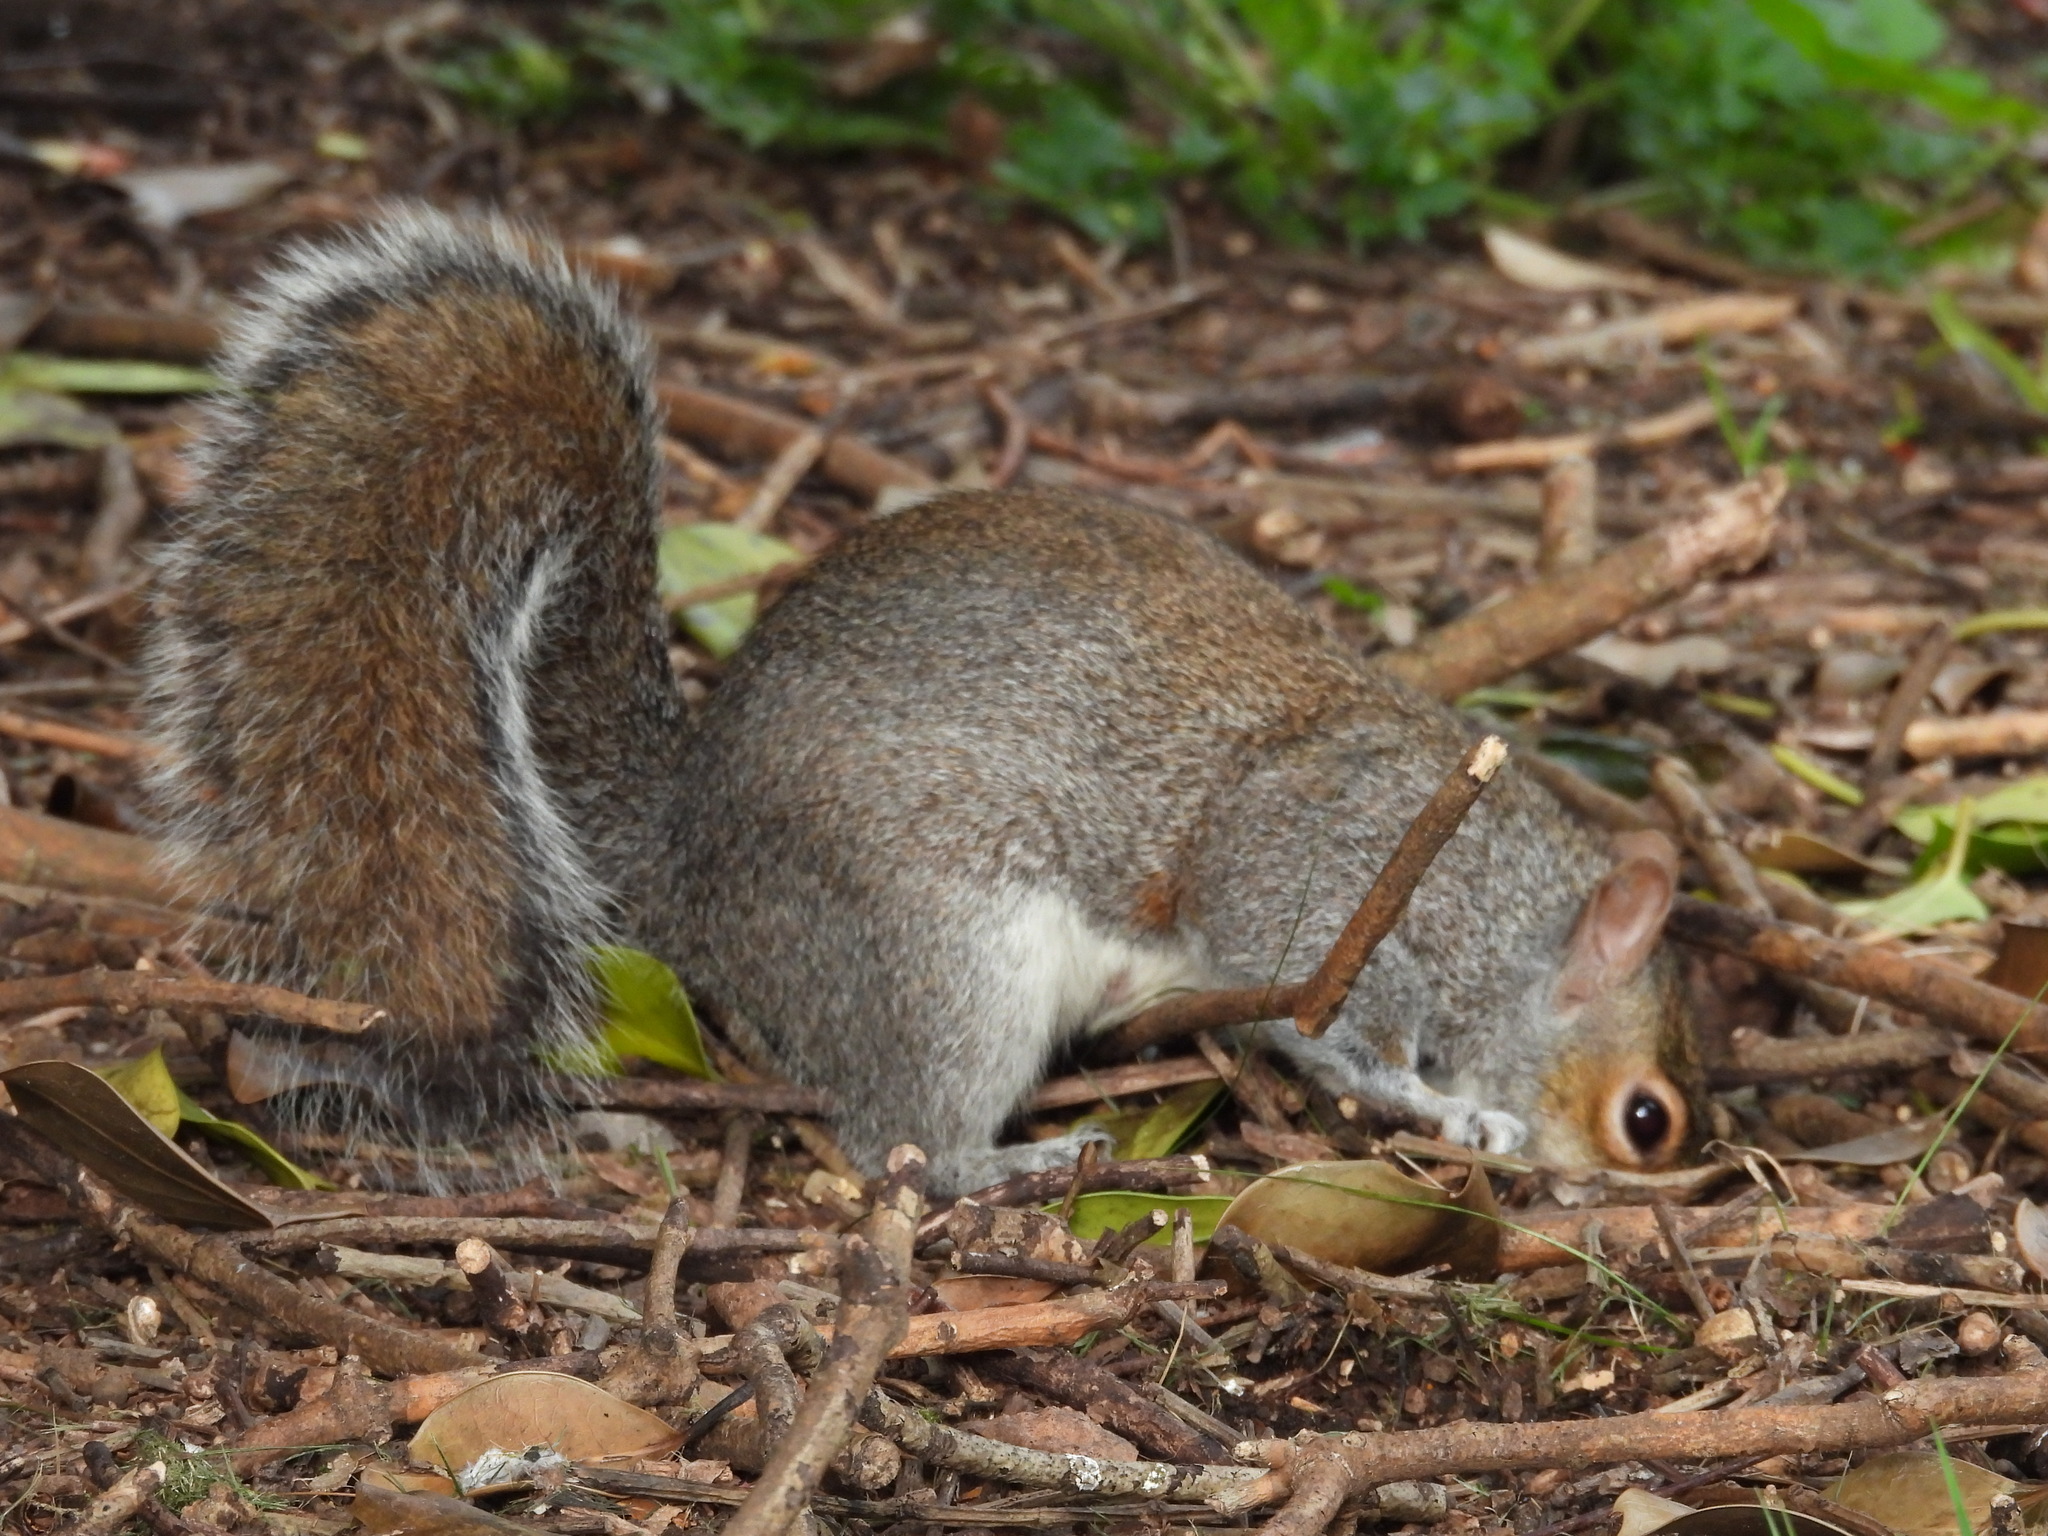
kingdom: Animalia
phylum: Chordata
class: Mammalia
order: Rodentia
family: Sciuridae
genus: Sciurus
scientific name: Sciurus carolinensis
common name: Eastern gray squirrel
